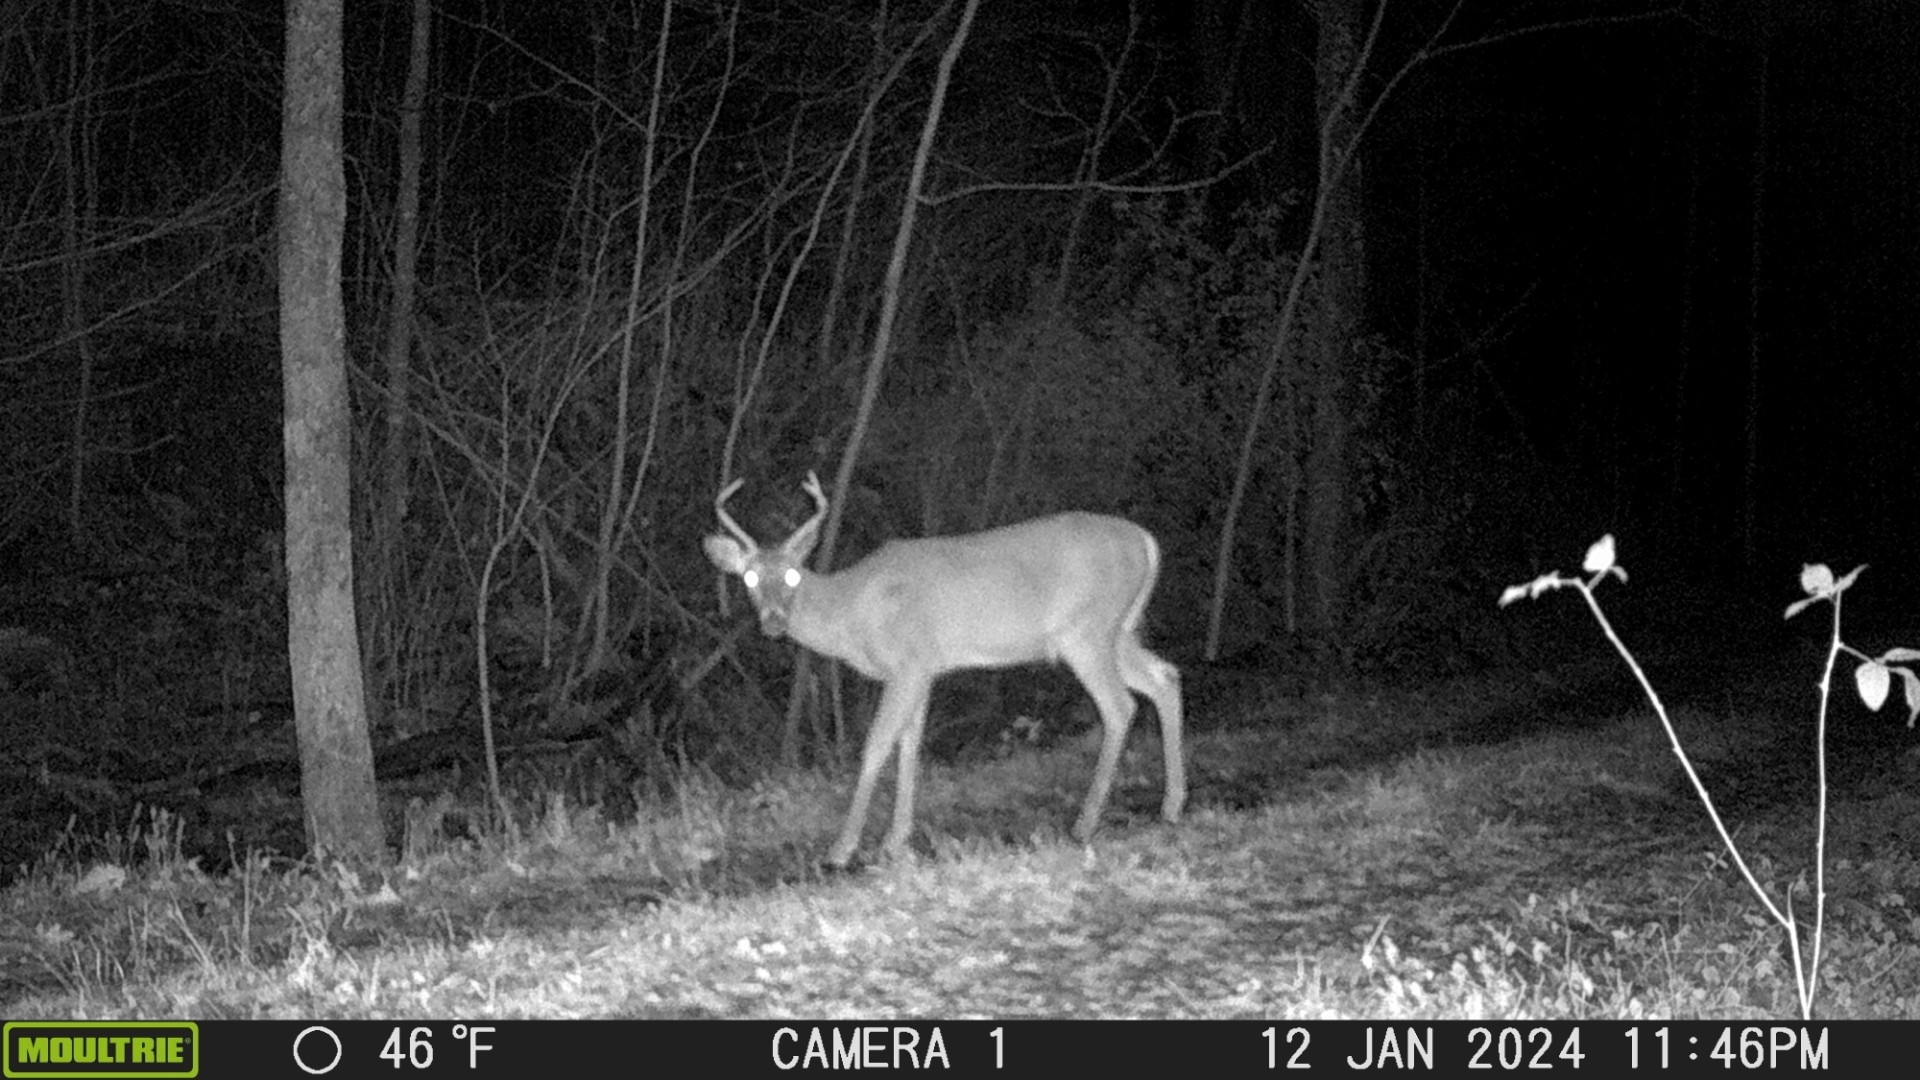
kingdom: Animalia
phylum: Chordata
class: Mammalia
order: Artiodactyla
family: Cervidae
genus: Odocoileus
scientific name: Odocoileus virginianus
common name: White-tailed deer
